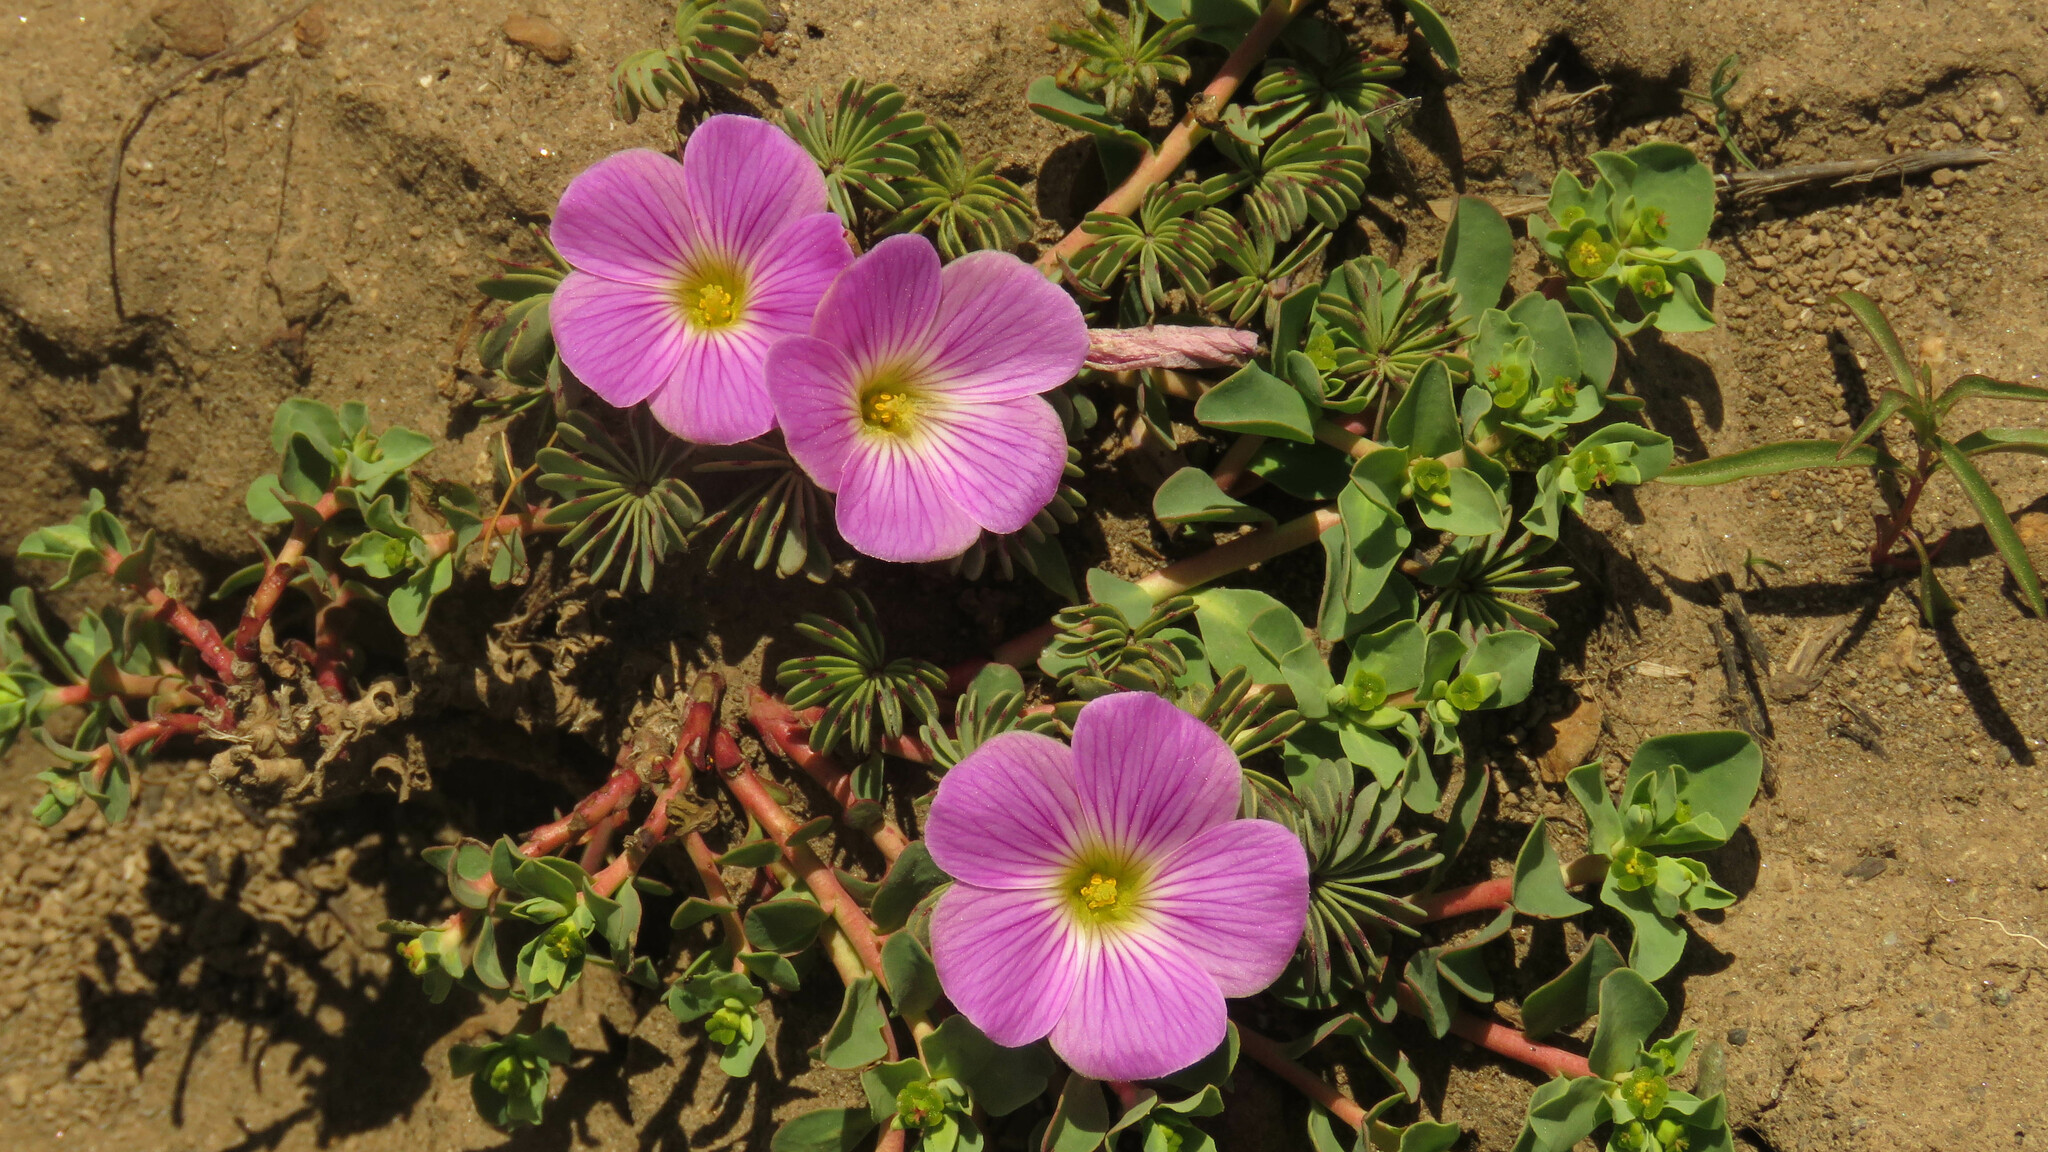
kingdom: Plantae
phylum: Tracheophyta
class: Magnoliopsida
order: Oxalidales
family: Oxalidaceae
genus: Oxalis
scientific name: Oxalis adenophylla
